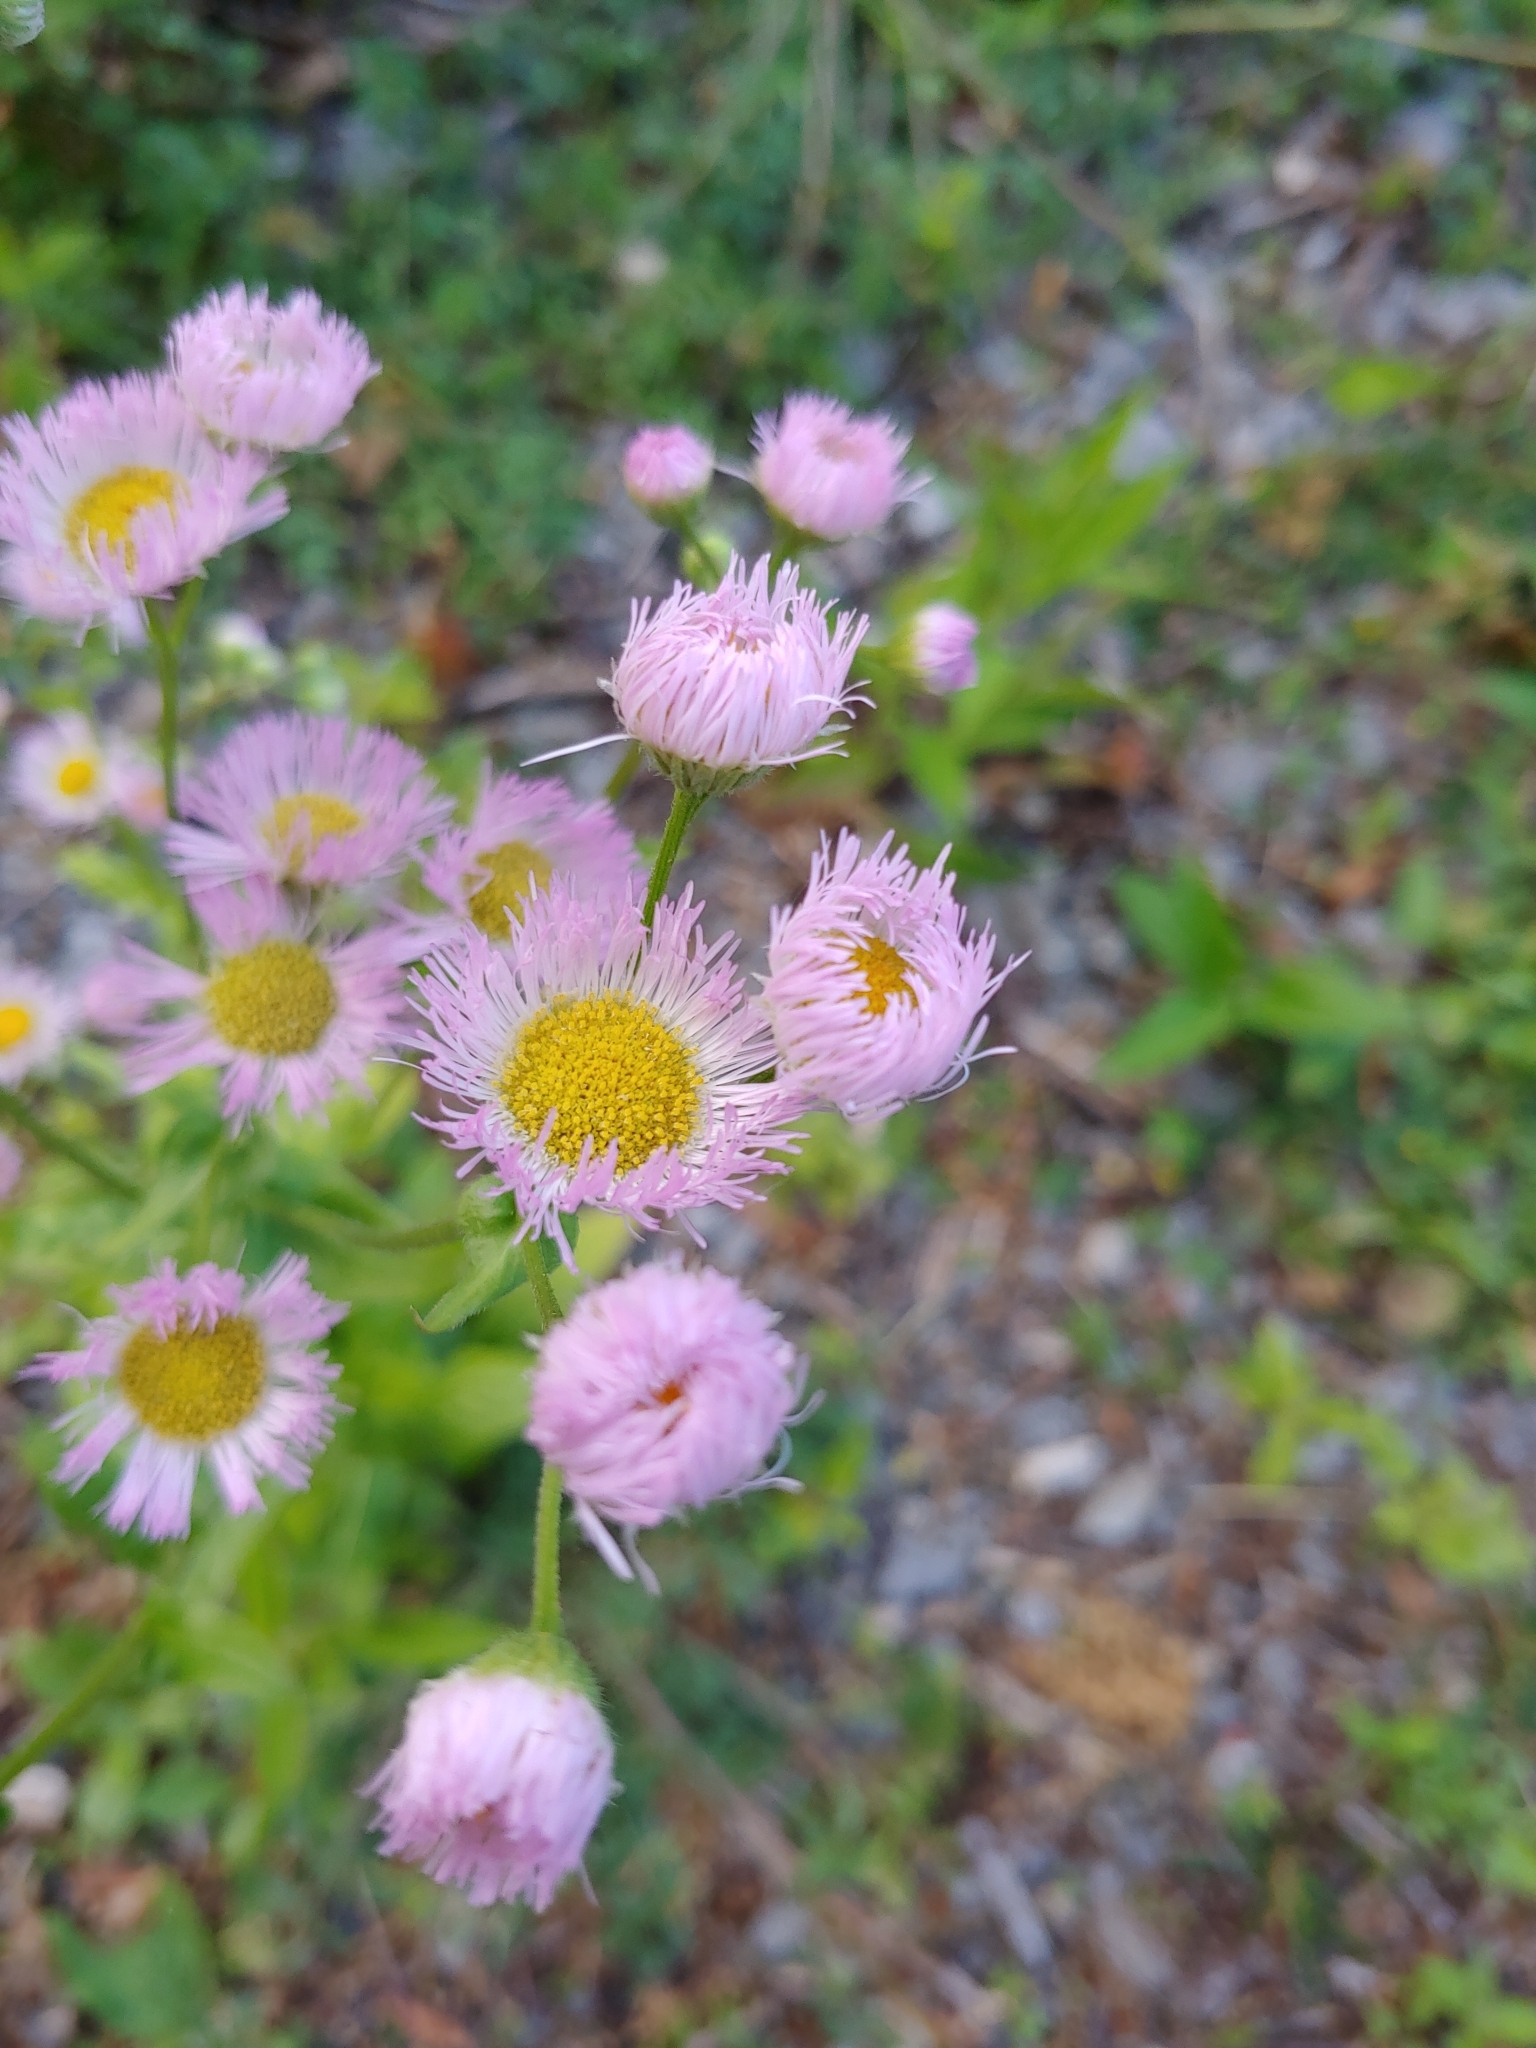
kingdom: Plantae
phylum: Tracheophyta
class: Magnoliopsida
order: Asterales
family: Asteraceae
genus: Erigeron
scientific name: Erigeron philadelphicus
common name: Robin's-plantain
